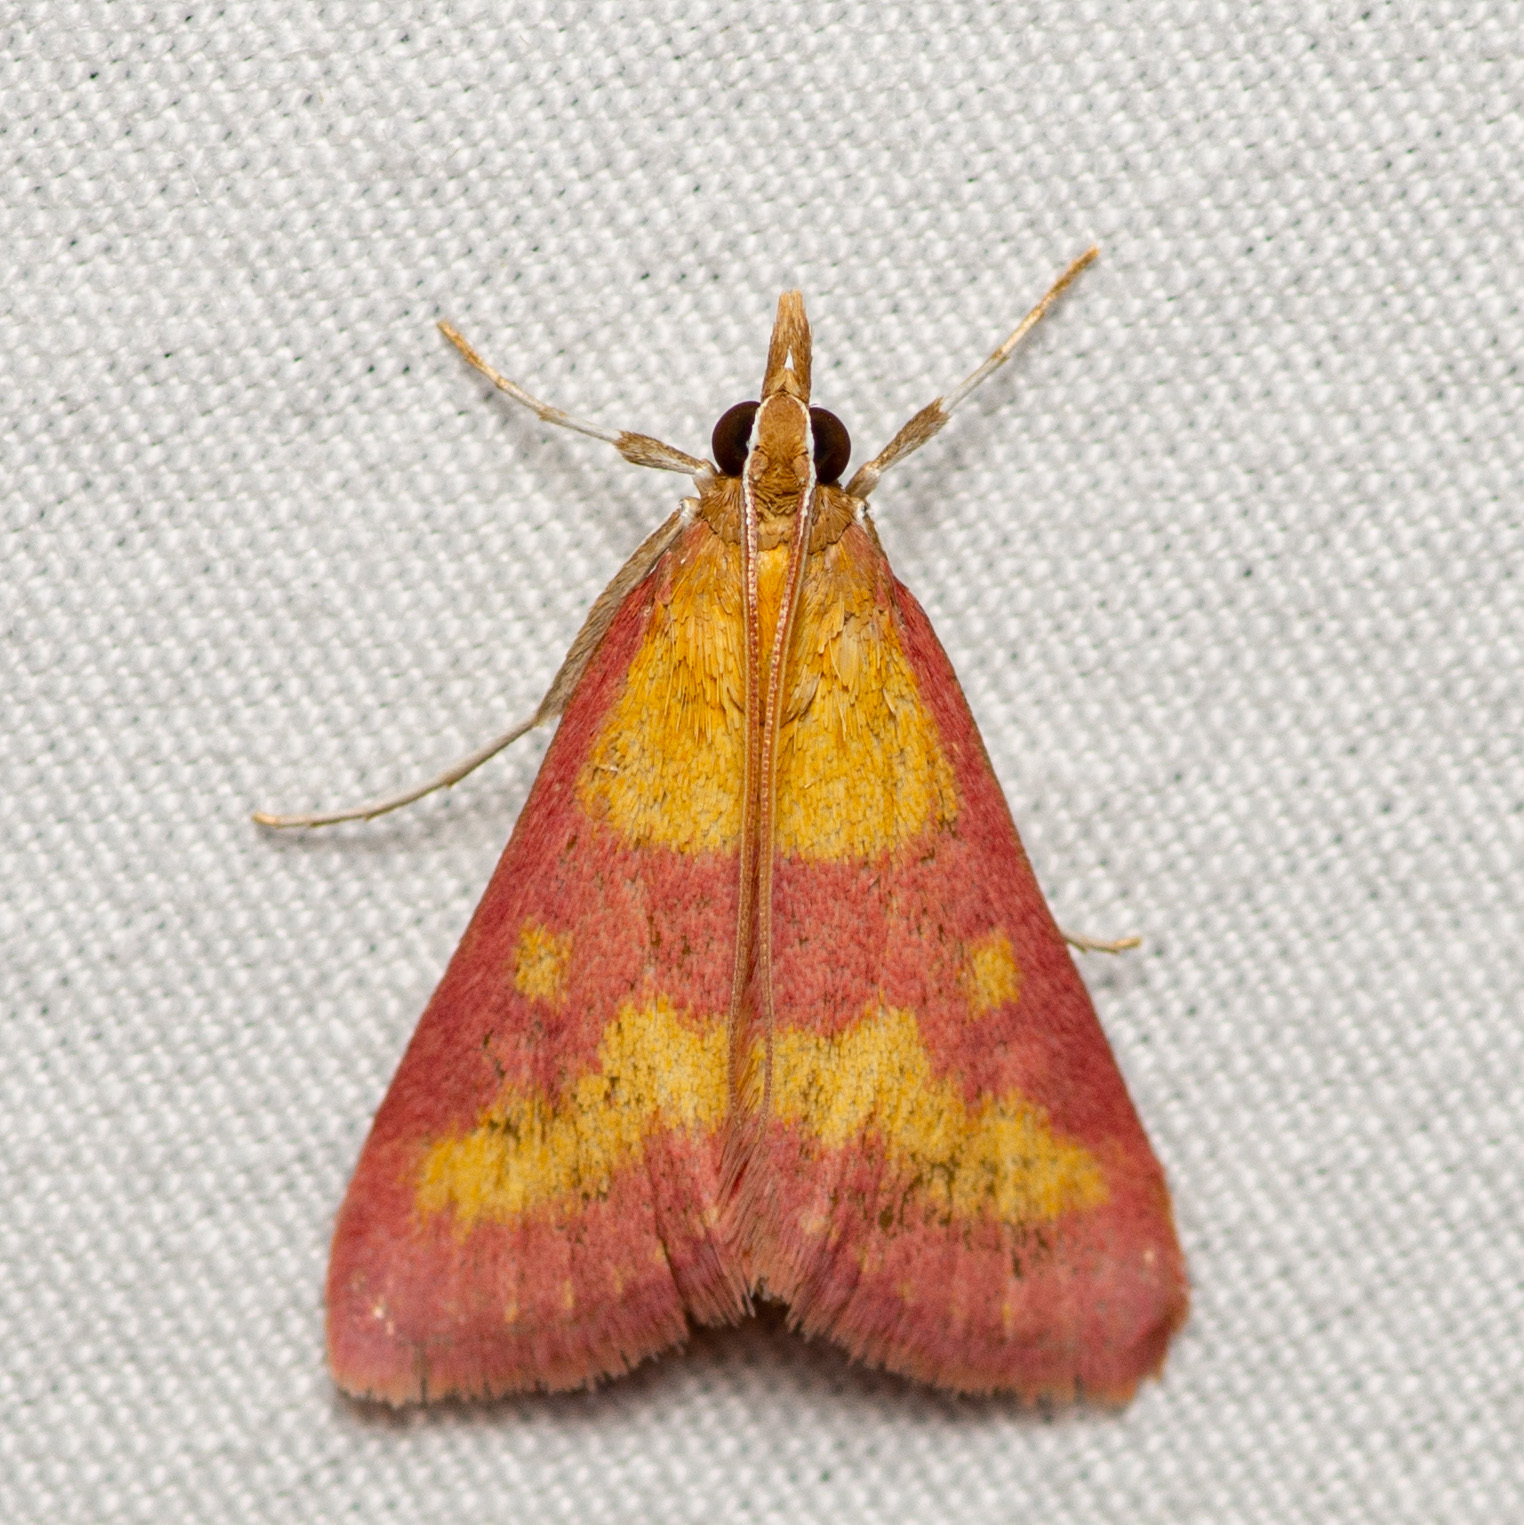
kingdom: Animalia
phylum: Arthropoda
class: Insecta
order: Lepidoptera
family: Crambidae
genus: Pyrausta
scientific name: Pyrausta laticlavia
